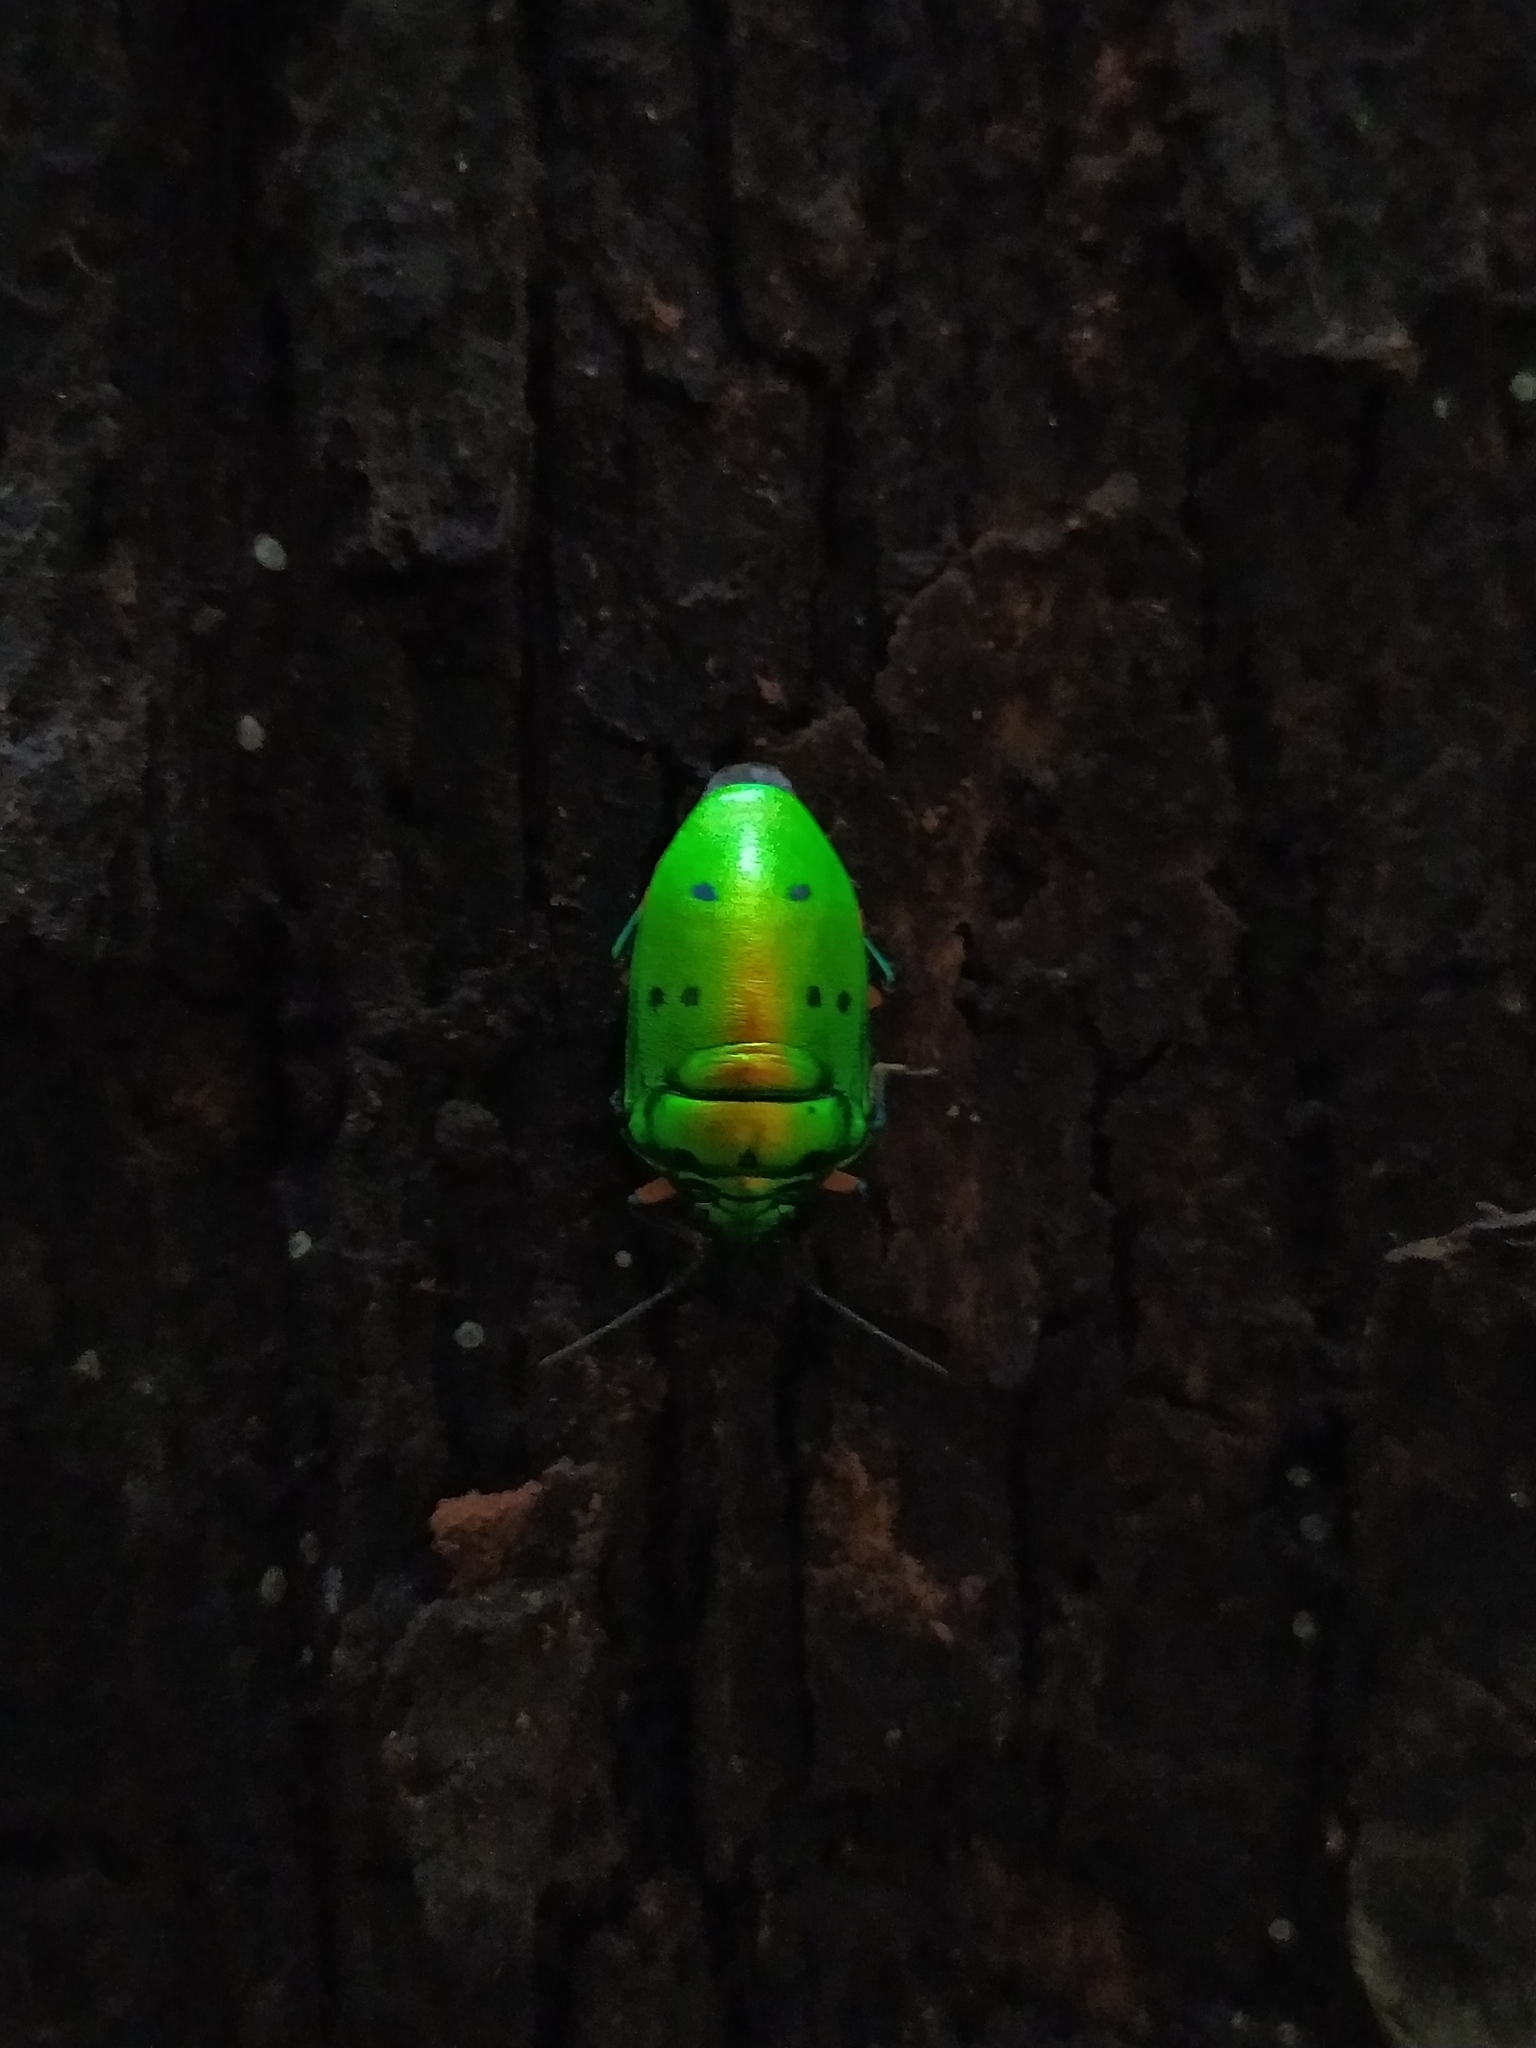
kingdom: Animalia
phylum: Arthropoda
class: Insecta
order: Hemiptera
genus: Graptophara
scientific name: Graptophara anomala
